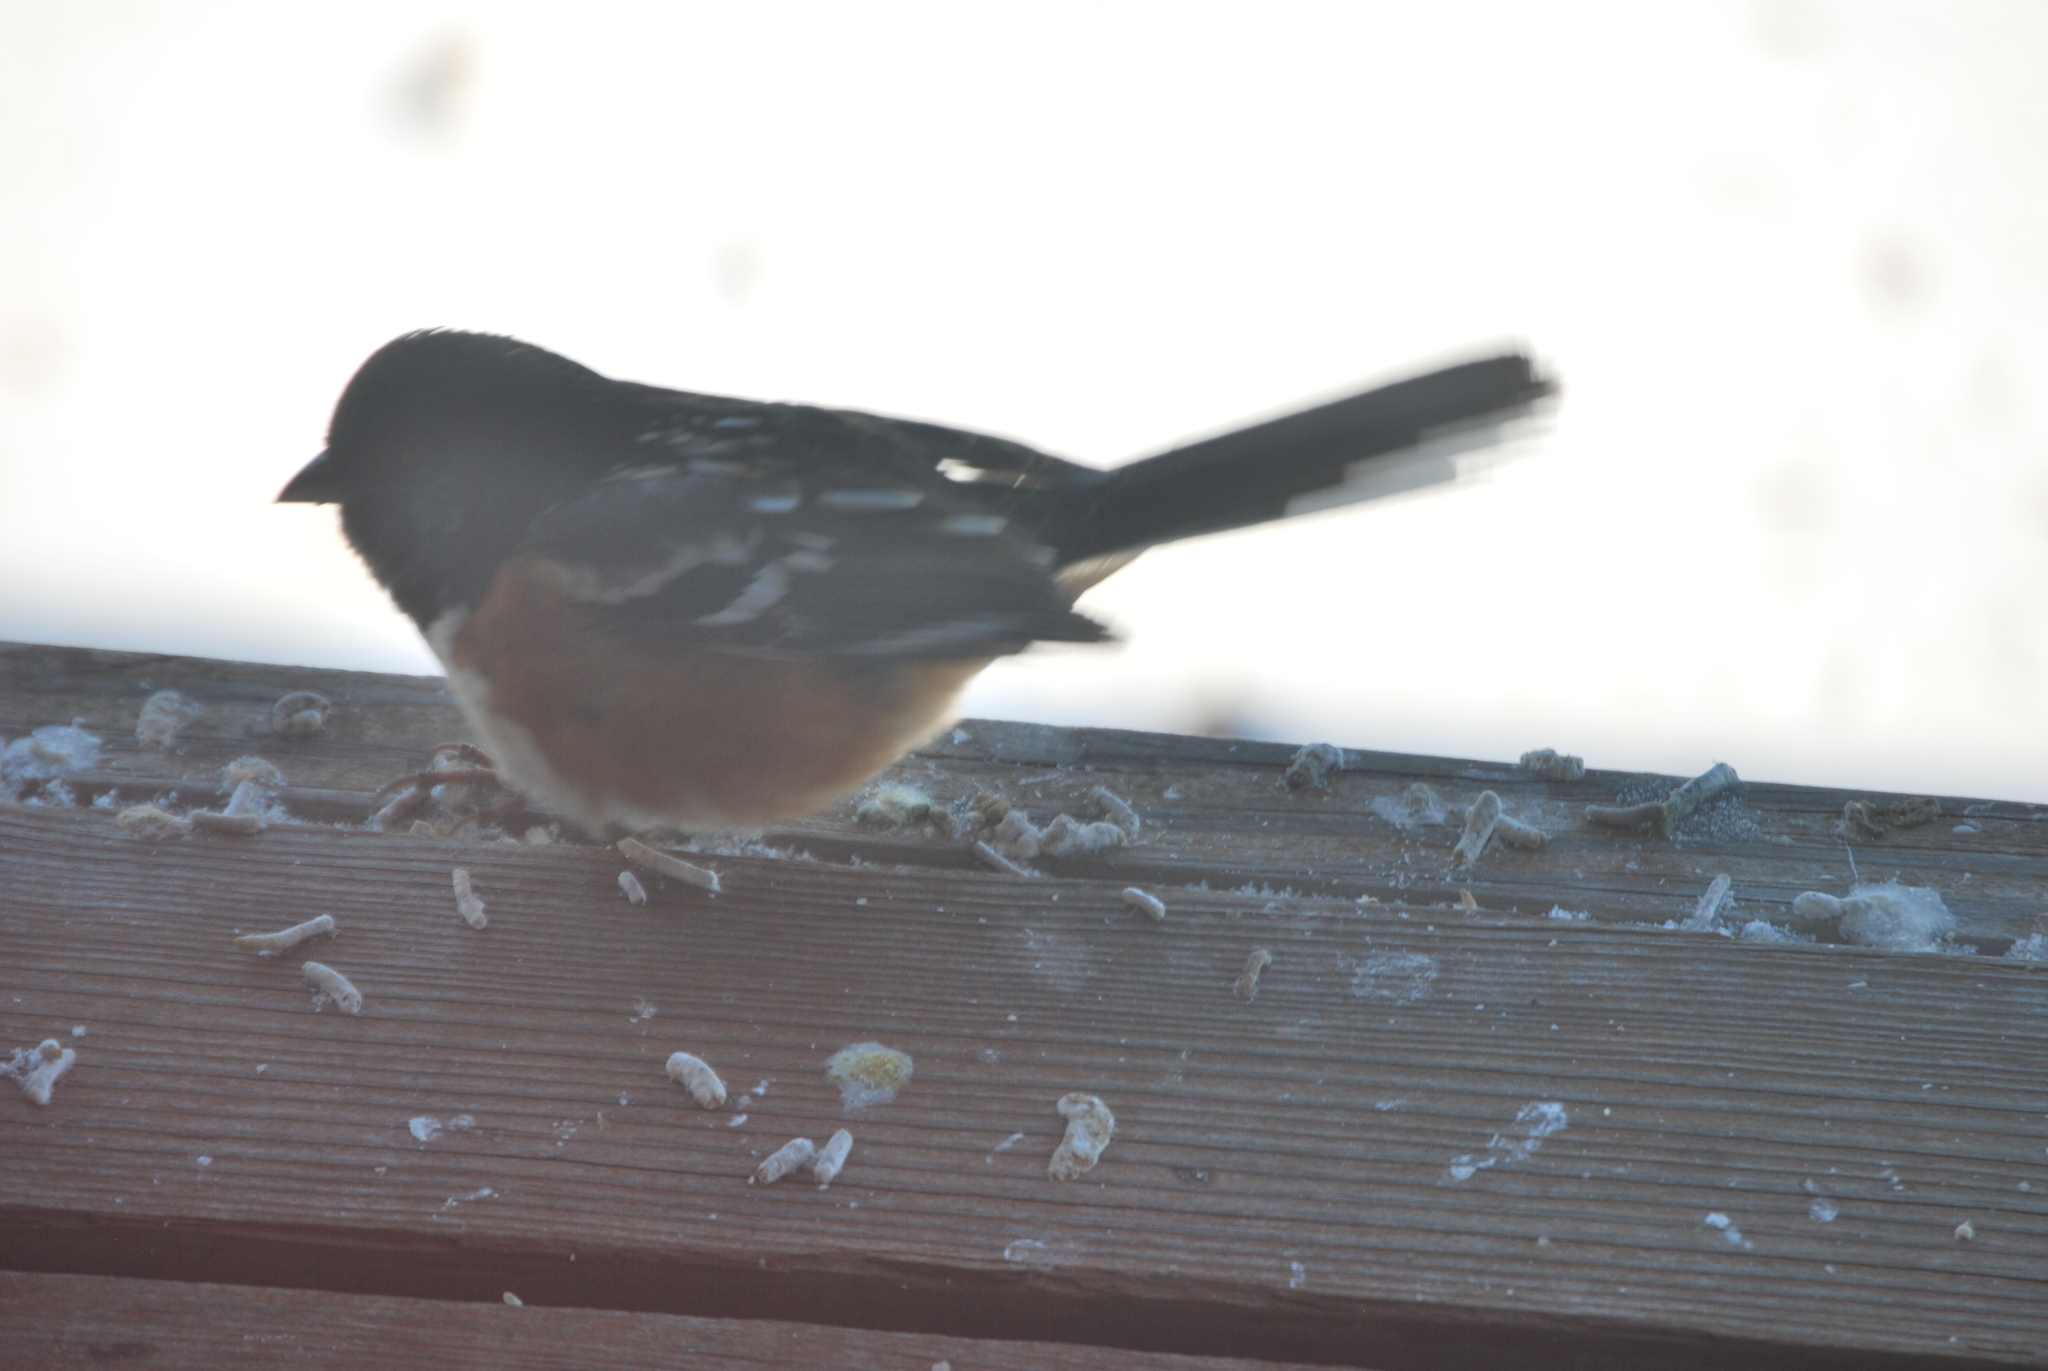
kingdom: Animalia
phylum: Chordata
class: Aves
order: Passeriformes
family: Passerellidae
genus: Pipilo
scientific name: Pipilo maculatus
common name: Spotted towhee
